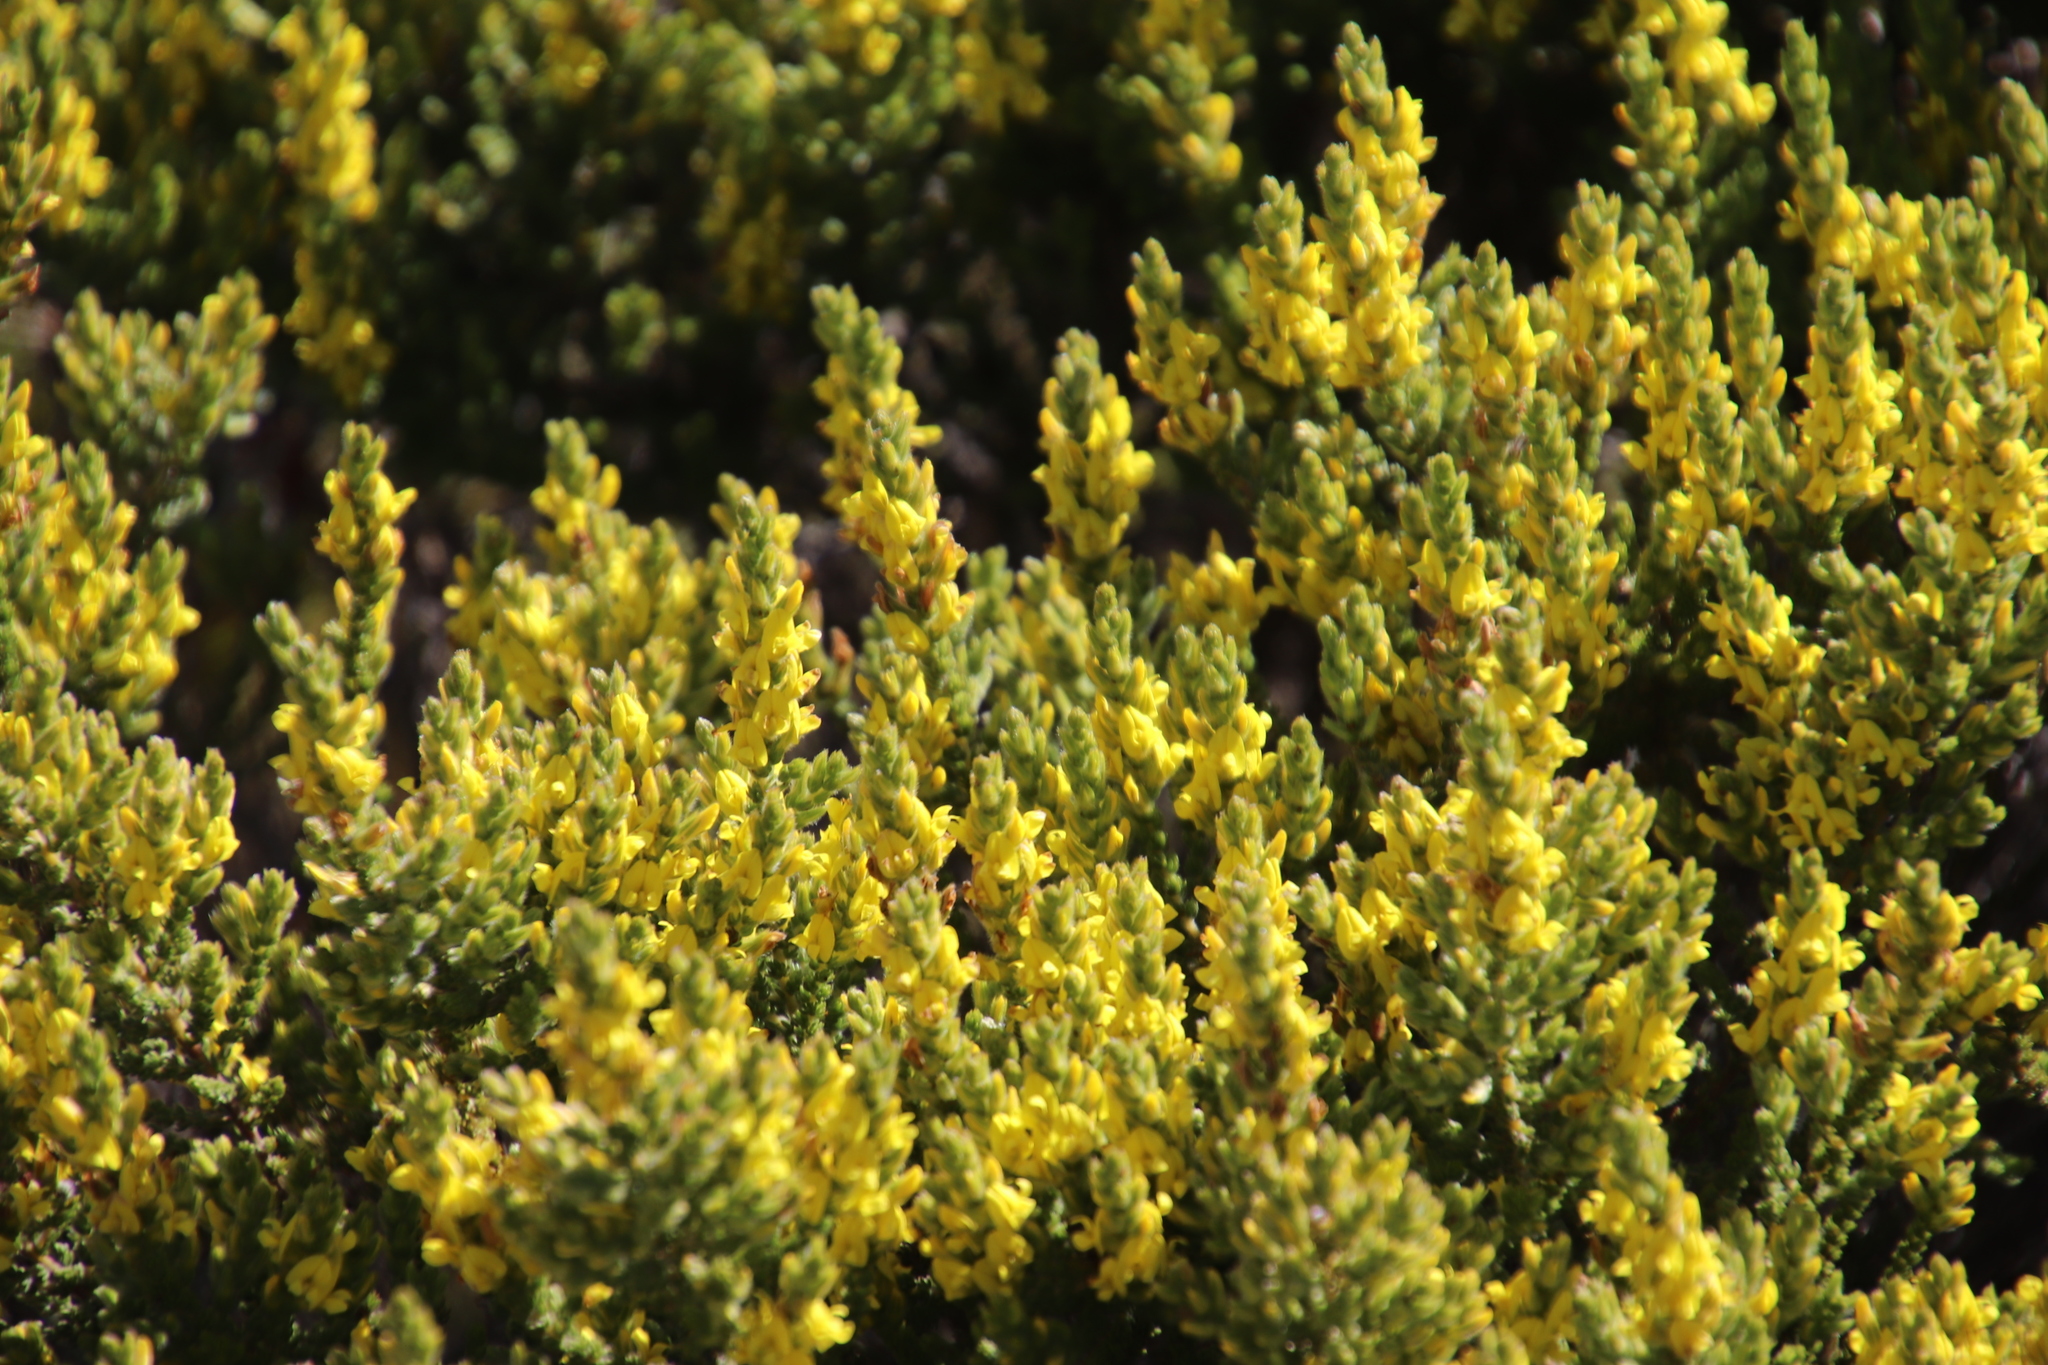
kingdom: Plantae
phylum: Tracheophyta
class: Magnoliopsida
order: Fabales
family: Fabaceae
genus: Aspalathus
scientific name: Aspalathus ericifolia
